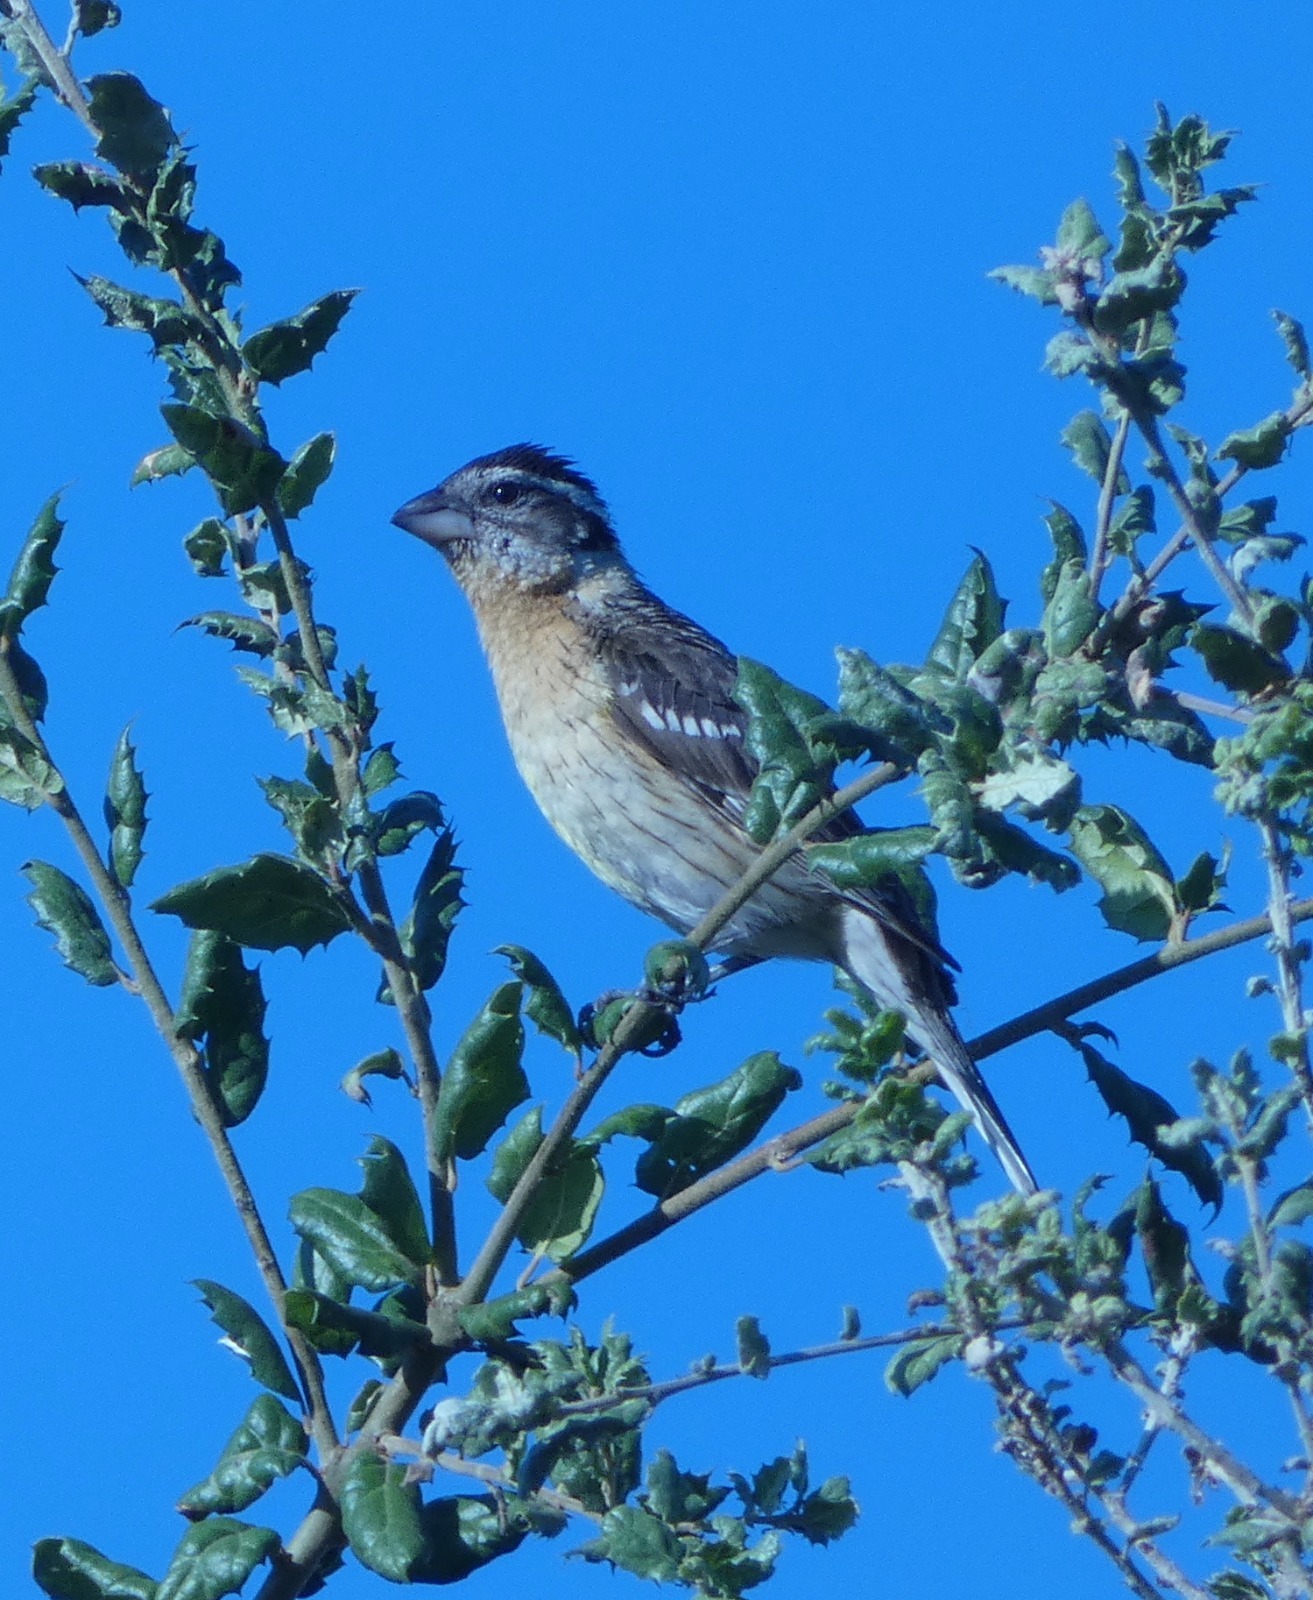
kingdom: Animalia
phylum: Chordata
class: Aves
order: Passeriformes
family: Cardinalidae
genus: Pheucticus
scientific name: Pheucticus melanocephalus
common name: Black-headed grosbeak
